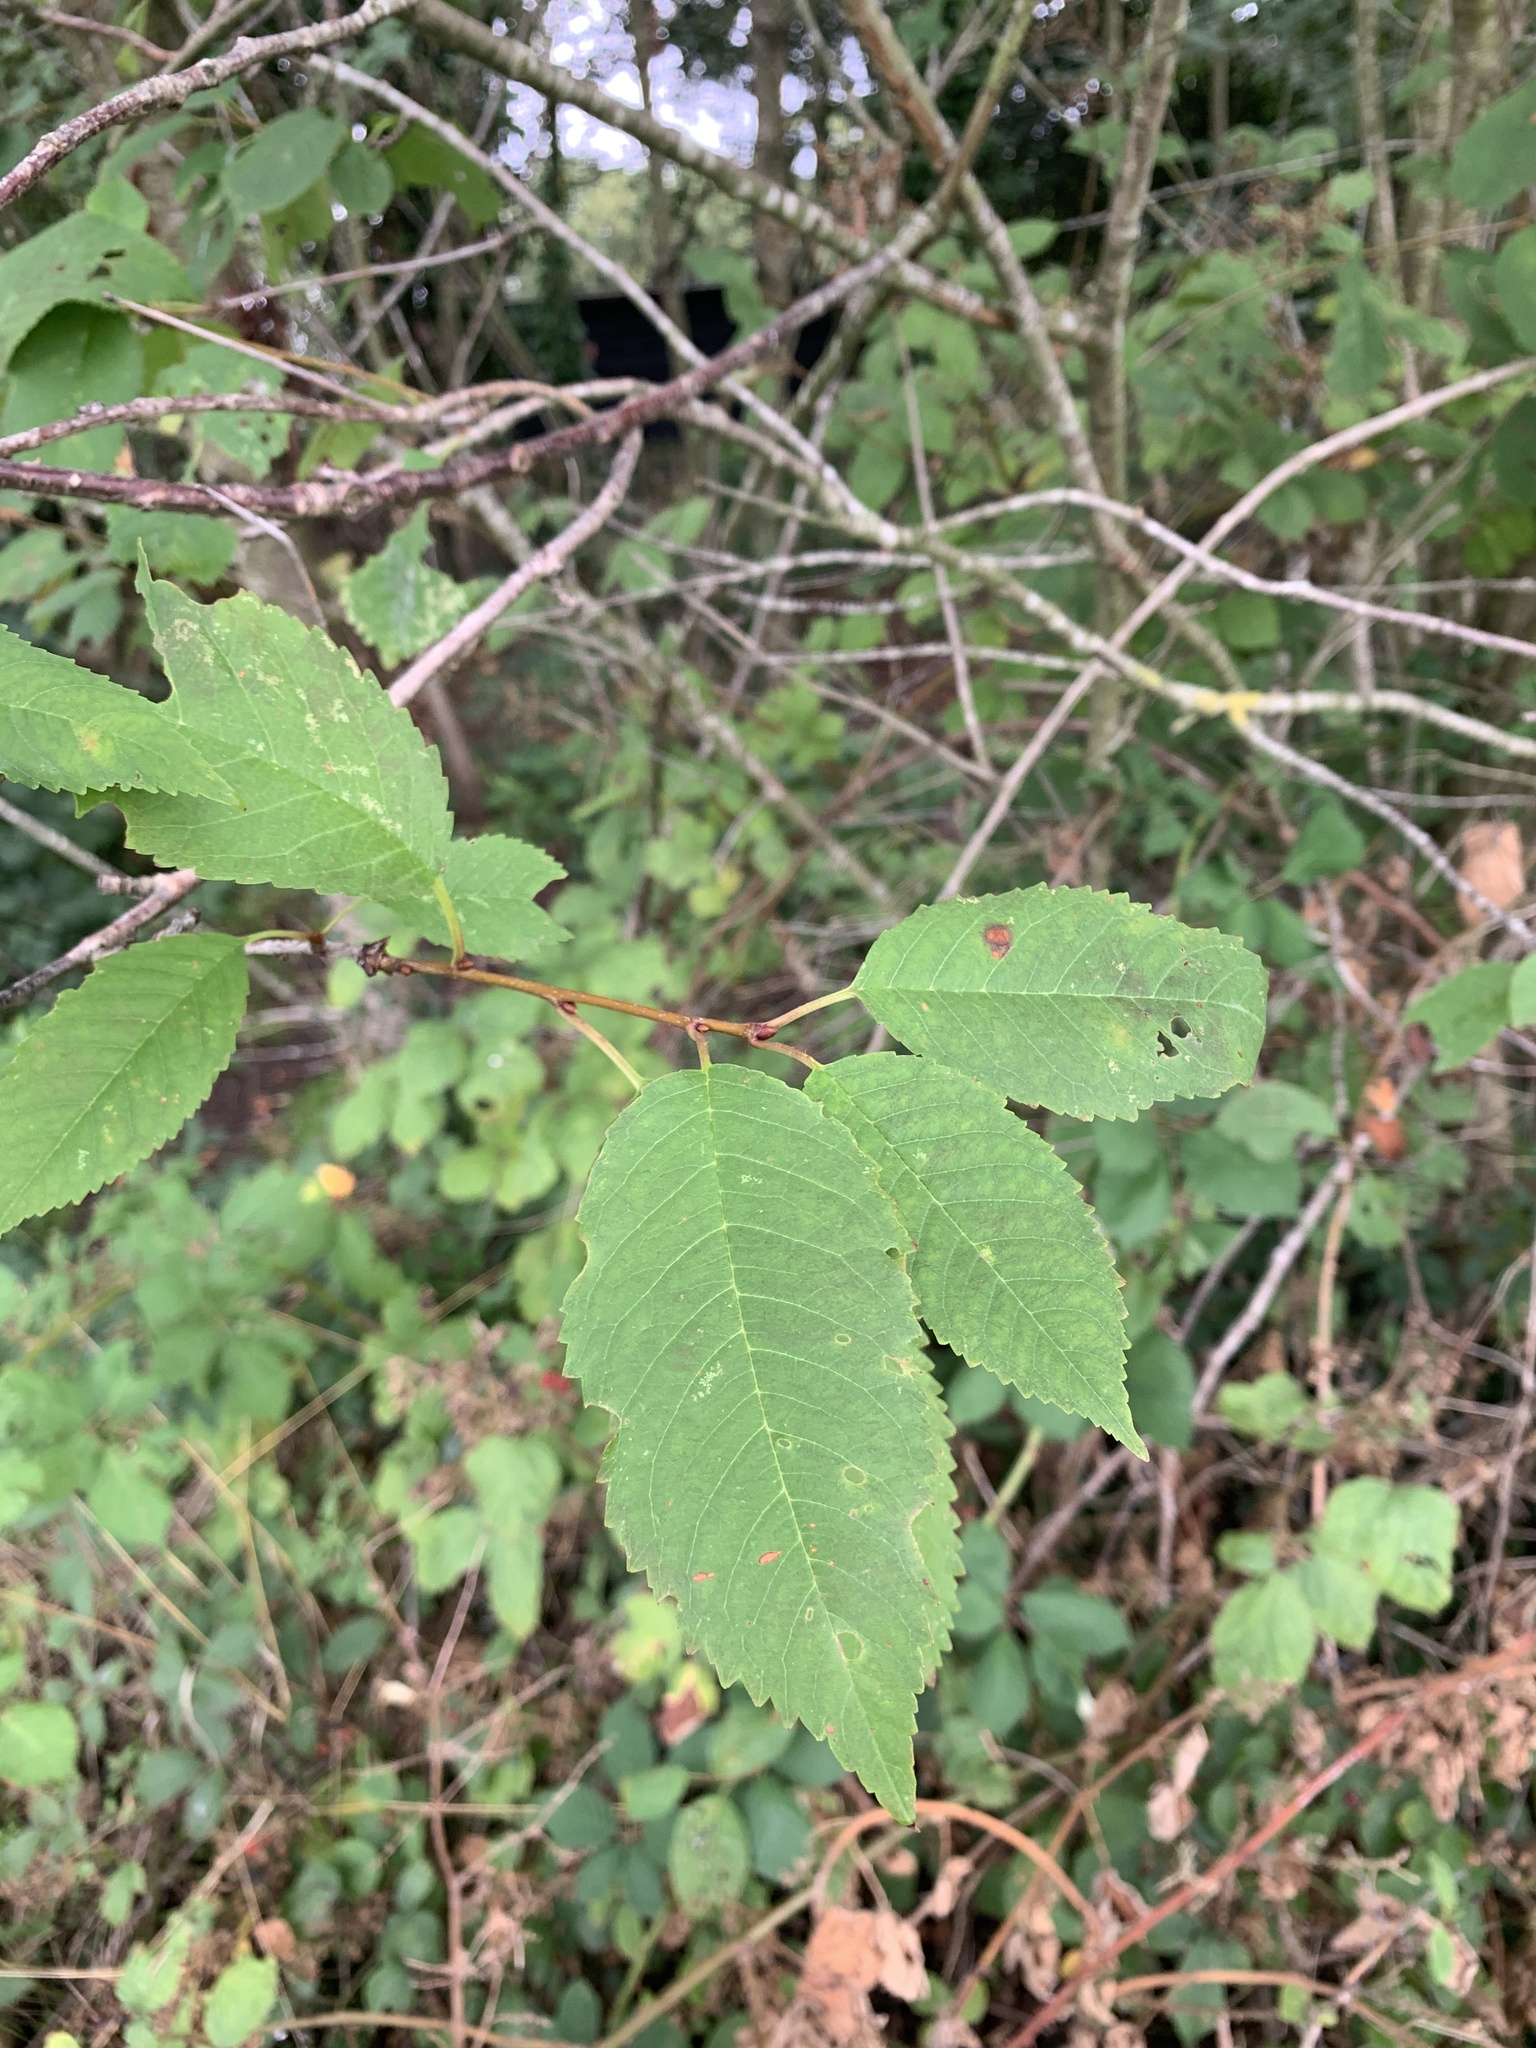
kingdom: Plantae
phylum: Tracheophyta
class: Magnoliopsida
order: Rosales
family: Rosaceae
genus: Prunus
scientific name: Prunus avium
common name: Sweet cherry
